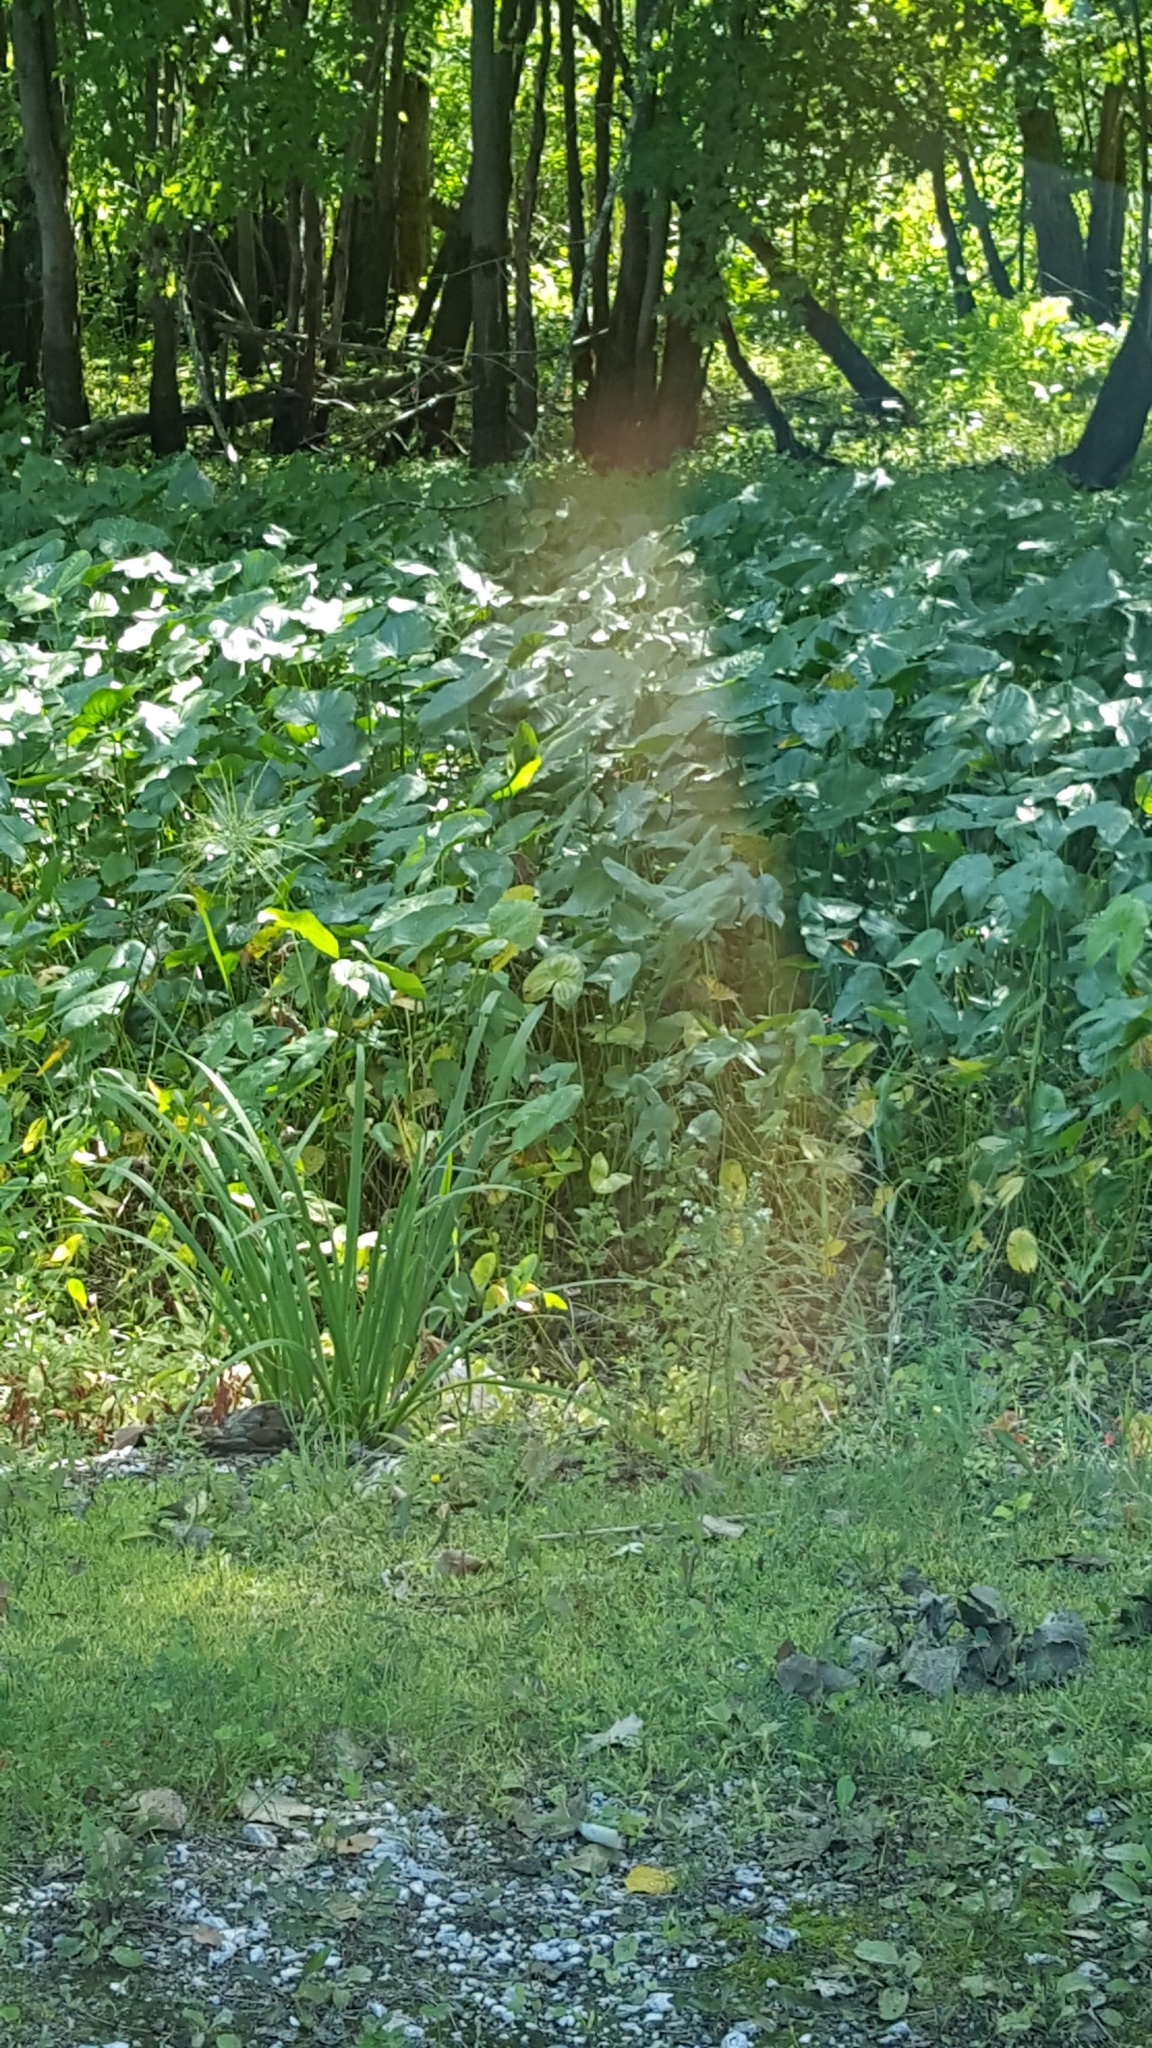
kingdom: Plantae
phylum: Tracheophyta
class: Liliopsida
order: Alismatales
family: Alismataceae
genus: Sagittaria
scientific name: Sagittaria latifolia
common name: Duck-potato
